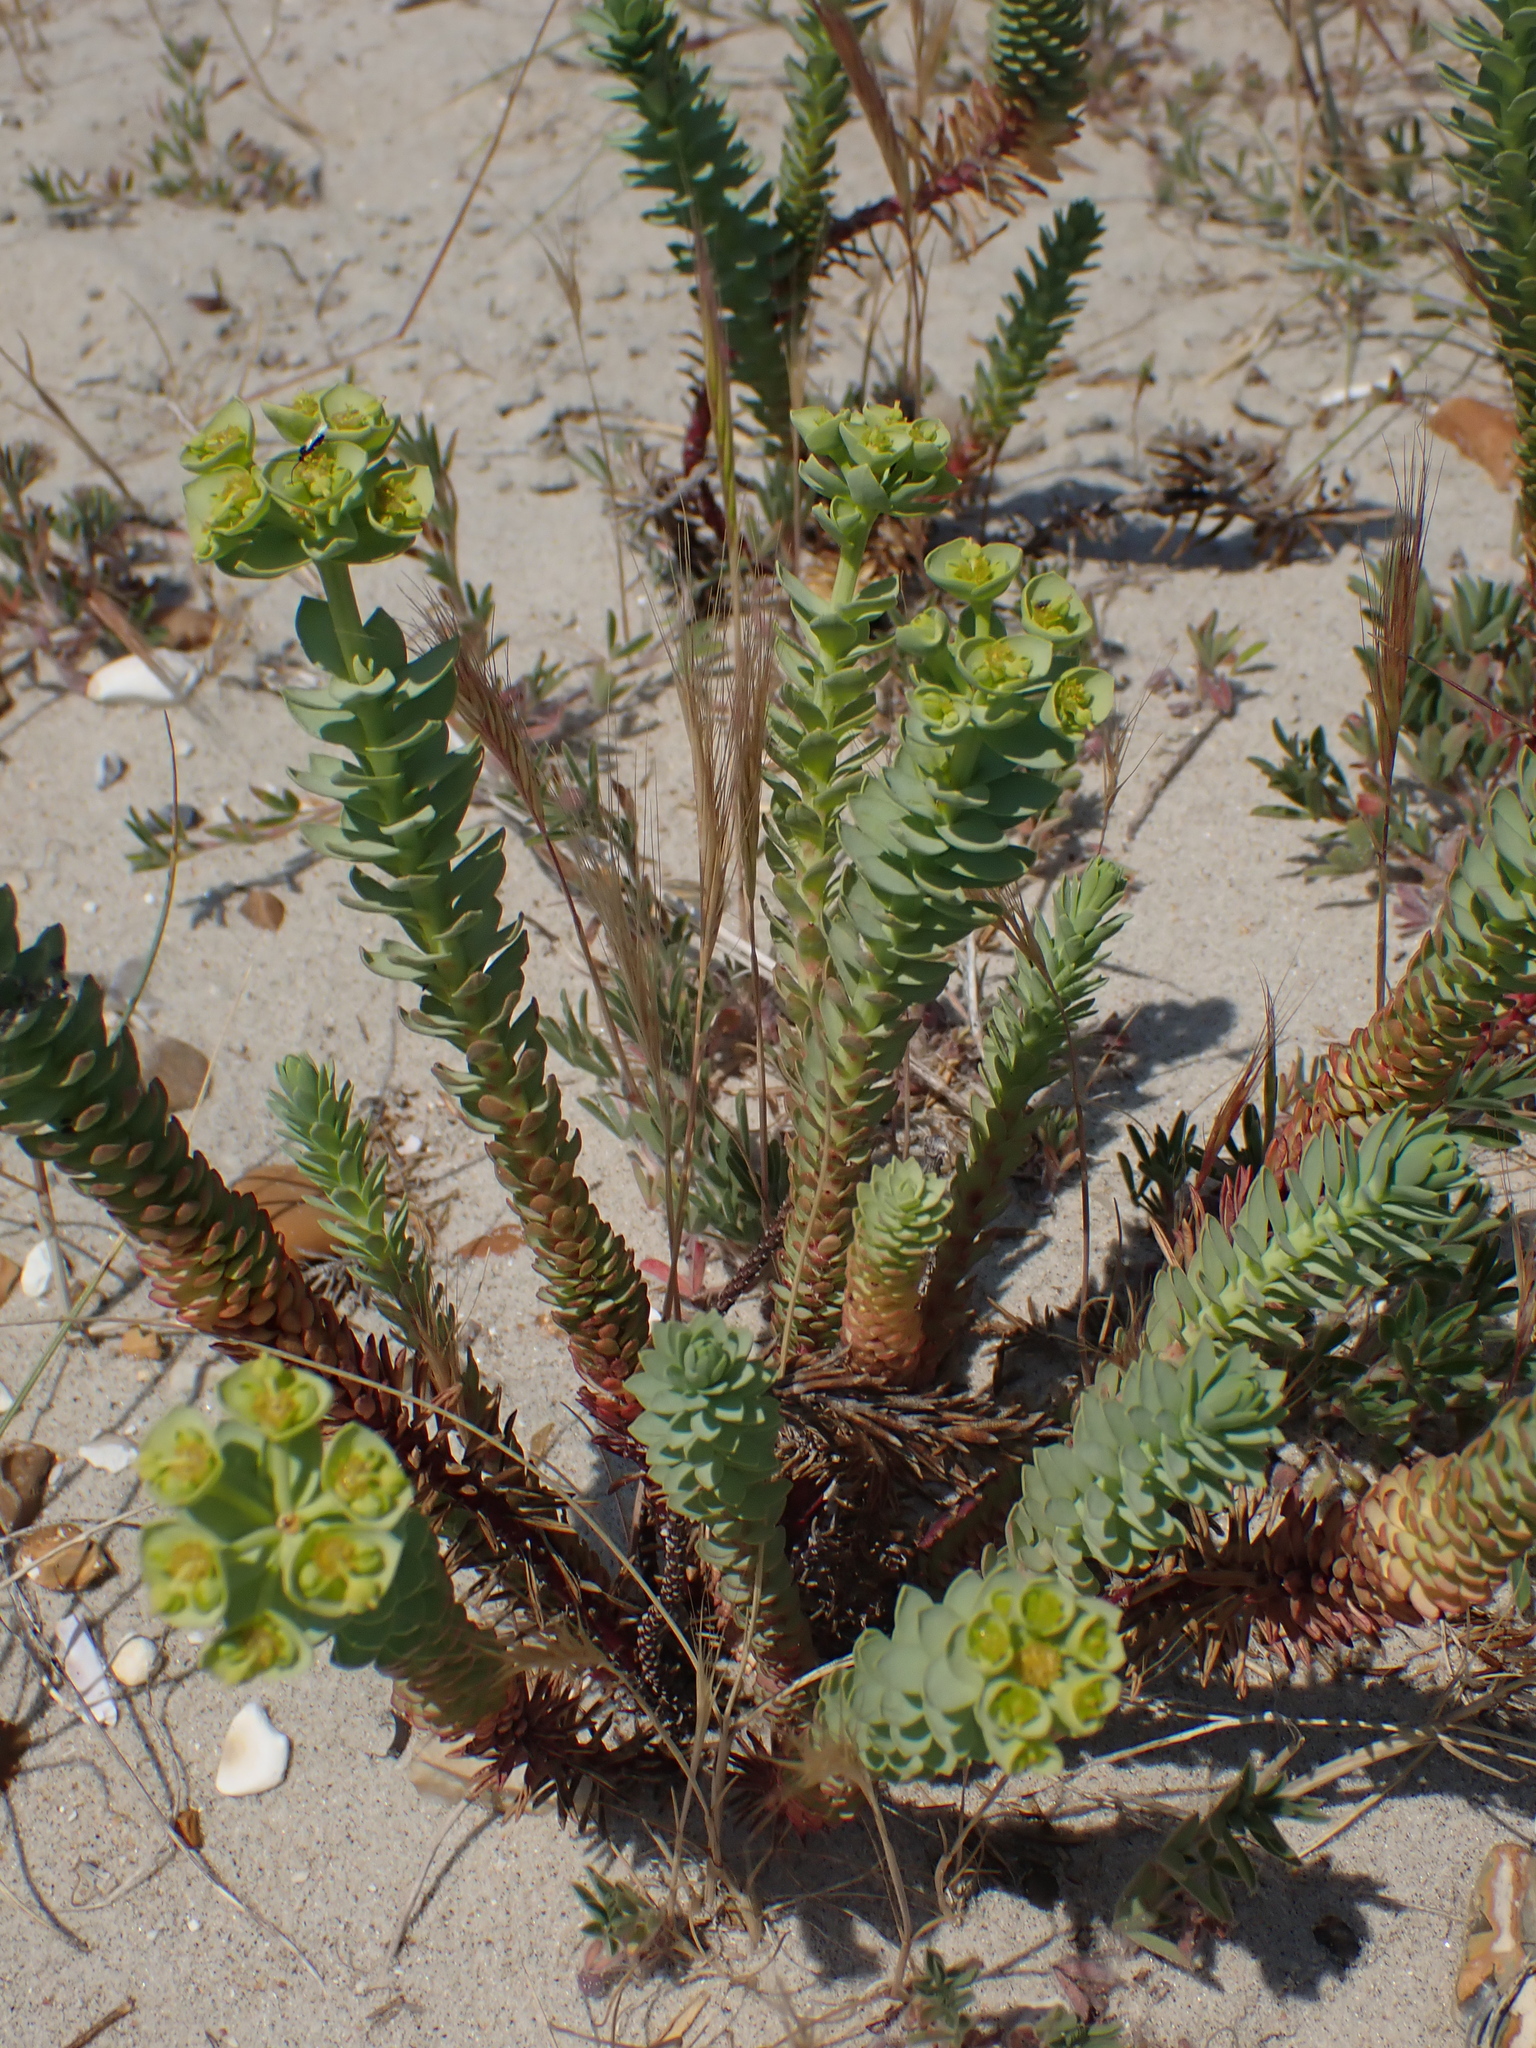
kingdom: Plantae
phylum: Tracheophyta
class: Magnoliopsida
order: Malpighiales
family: Euphorbiaceae
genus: Euphorbia
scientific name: Euphorbia paralias
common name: Sea spurge
